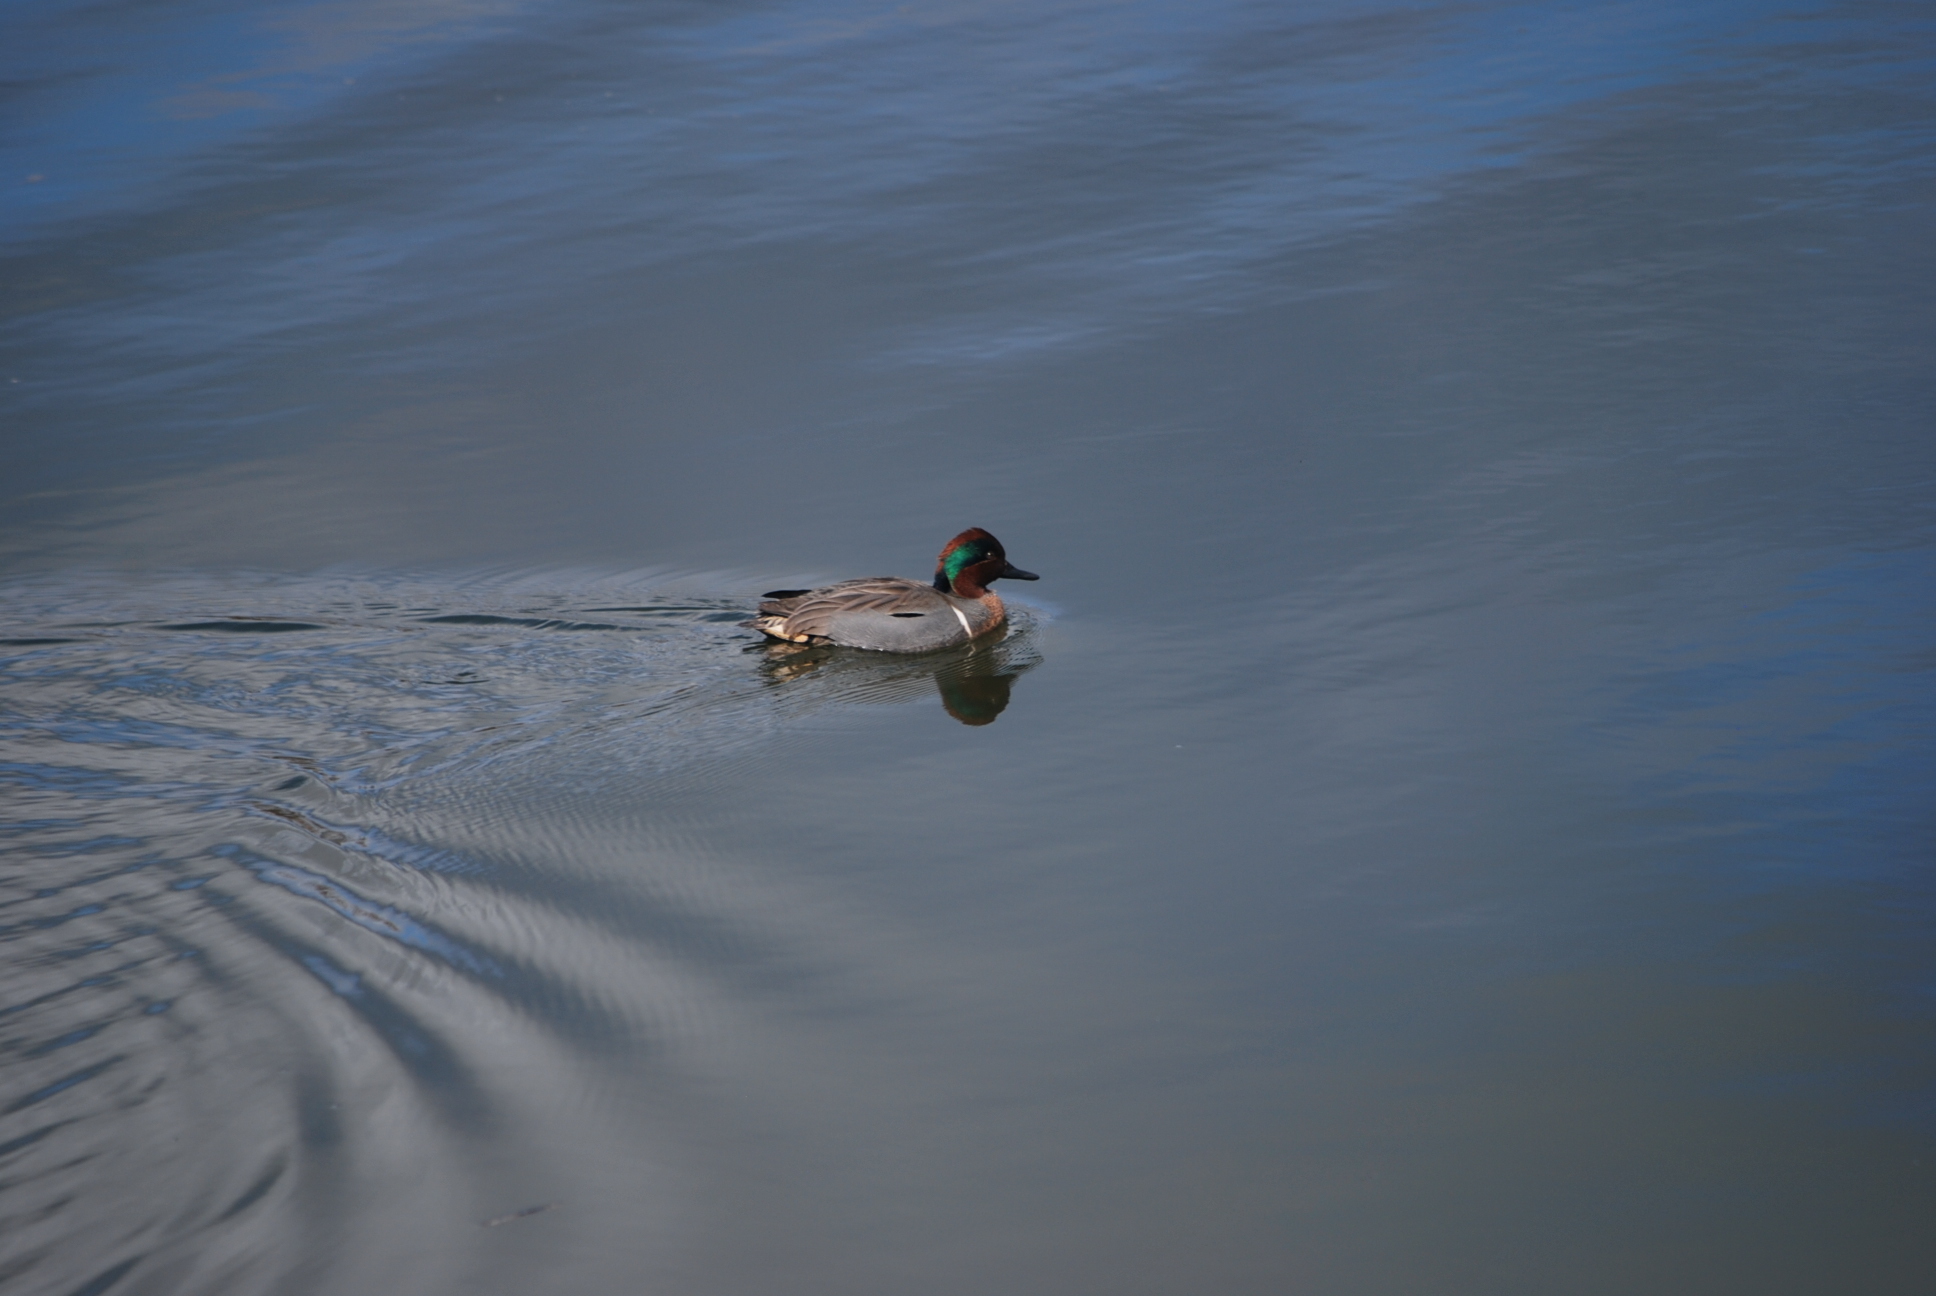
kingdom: Animalia
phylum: Chordata
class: Aves
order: Anseriformes
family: Anatidae
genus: Anas
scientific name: Anas crecca
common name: Eurasian teal
